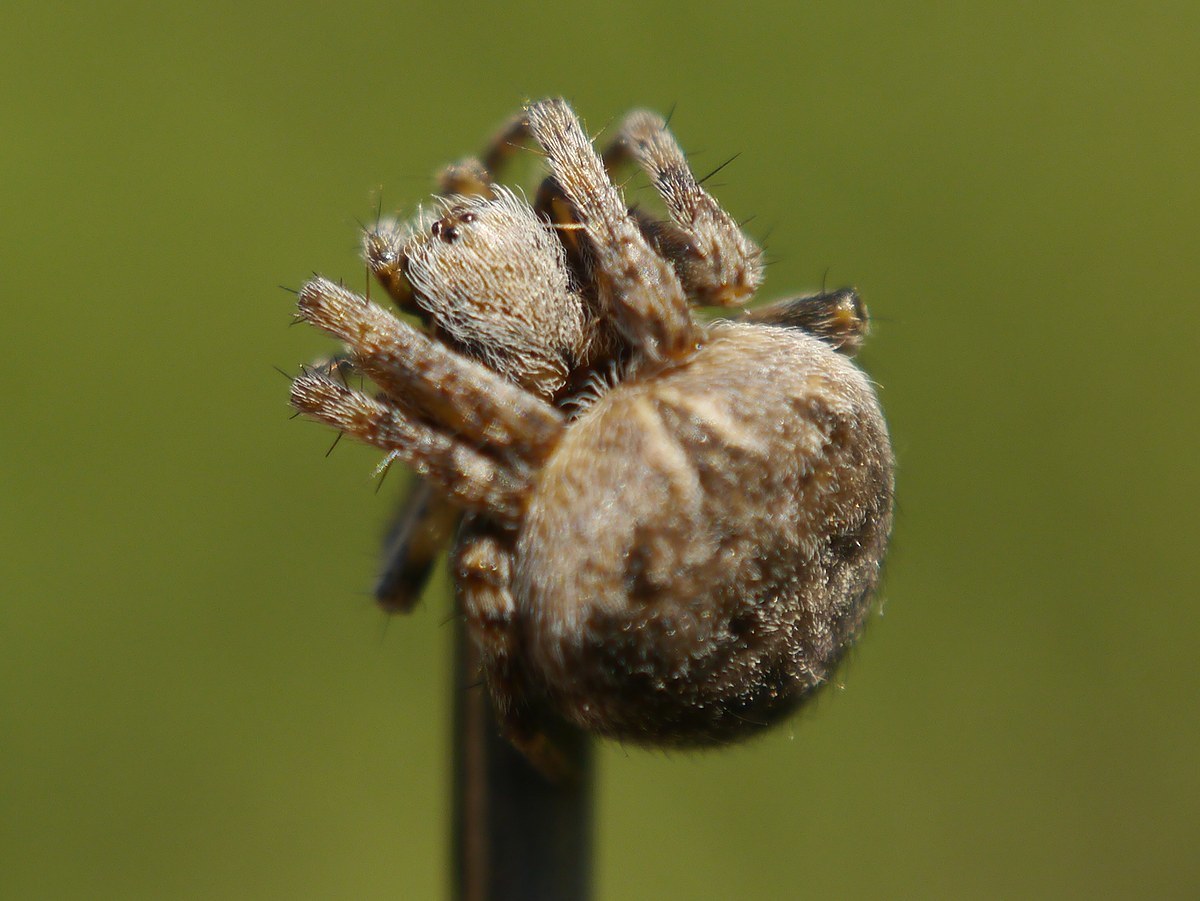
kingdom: Animalia
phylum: Arthropoda
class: Arachnida
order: Araneae
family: Araneidae
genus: Agalenatea
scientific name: Agalenatea redii
